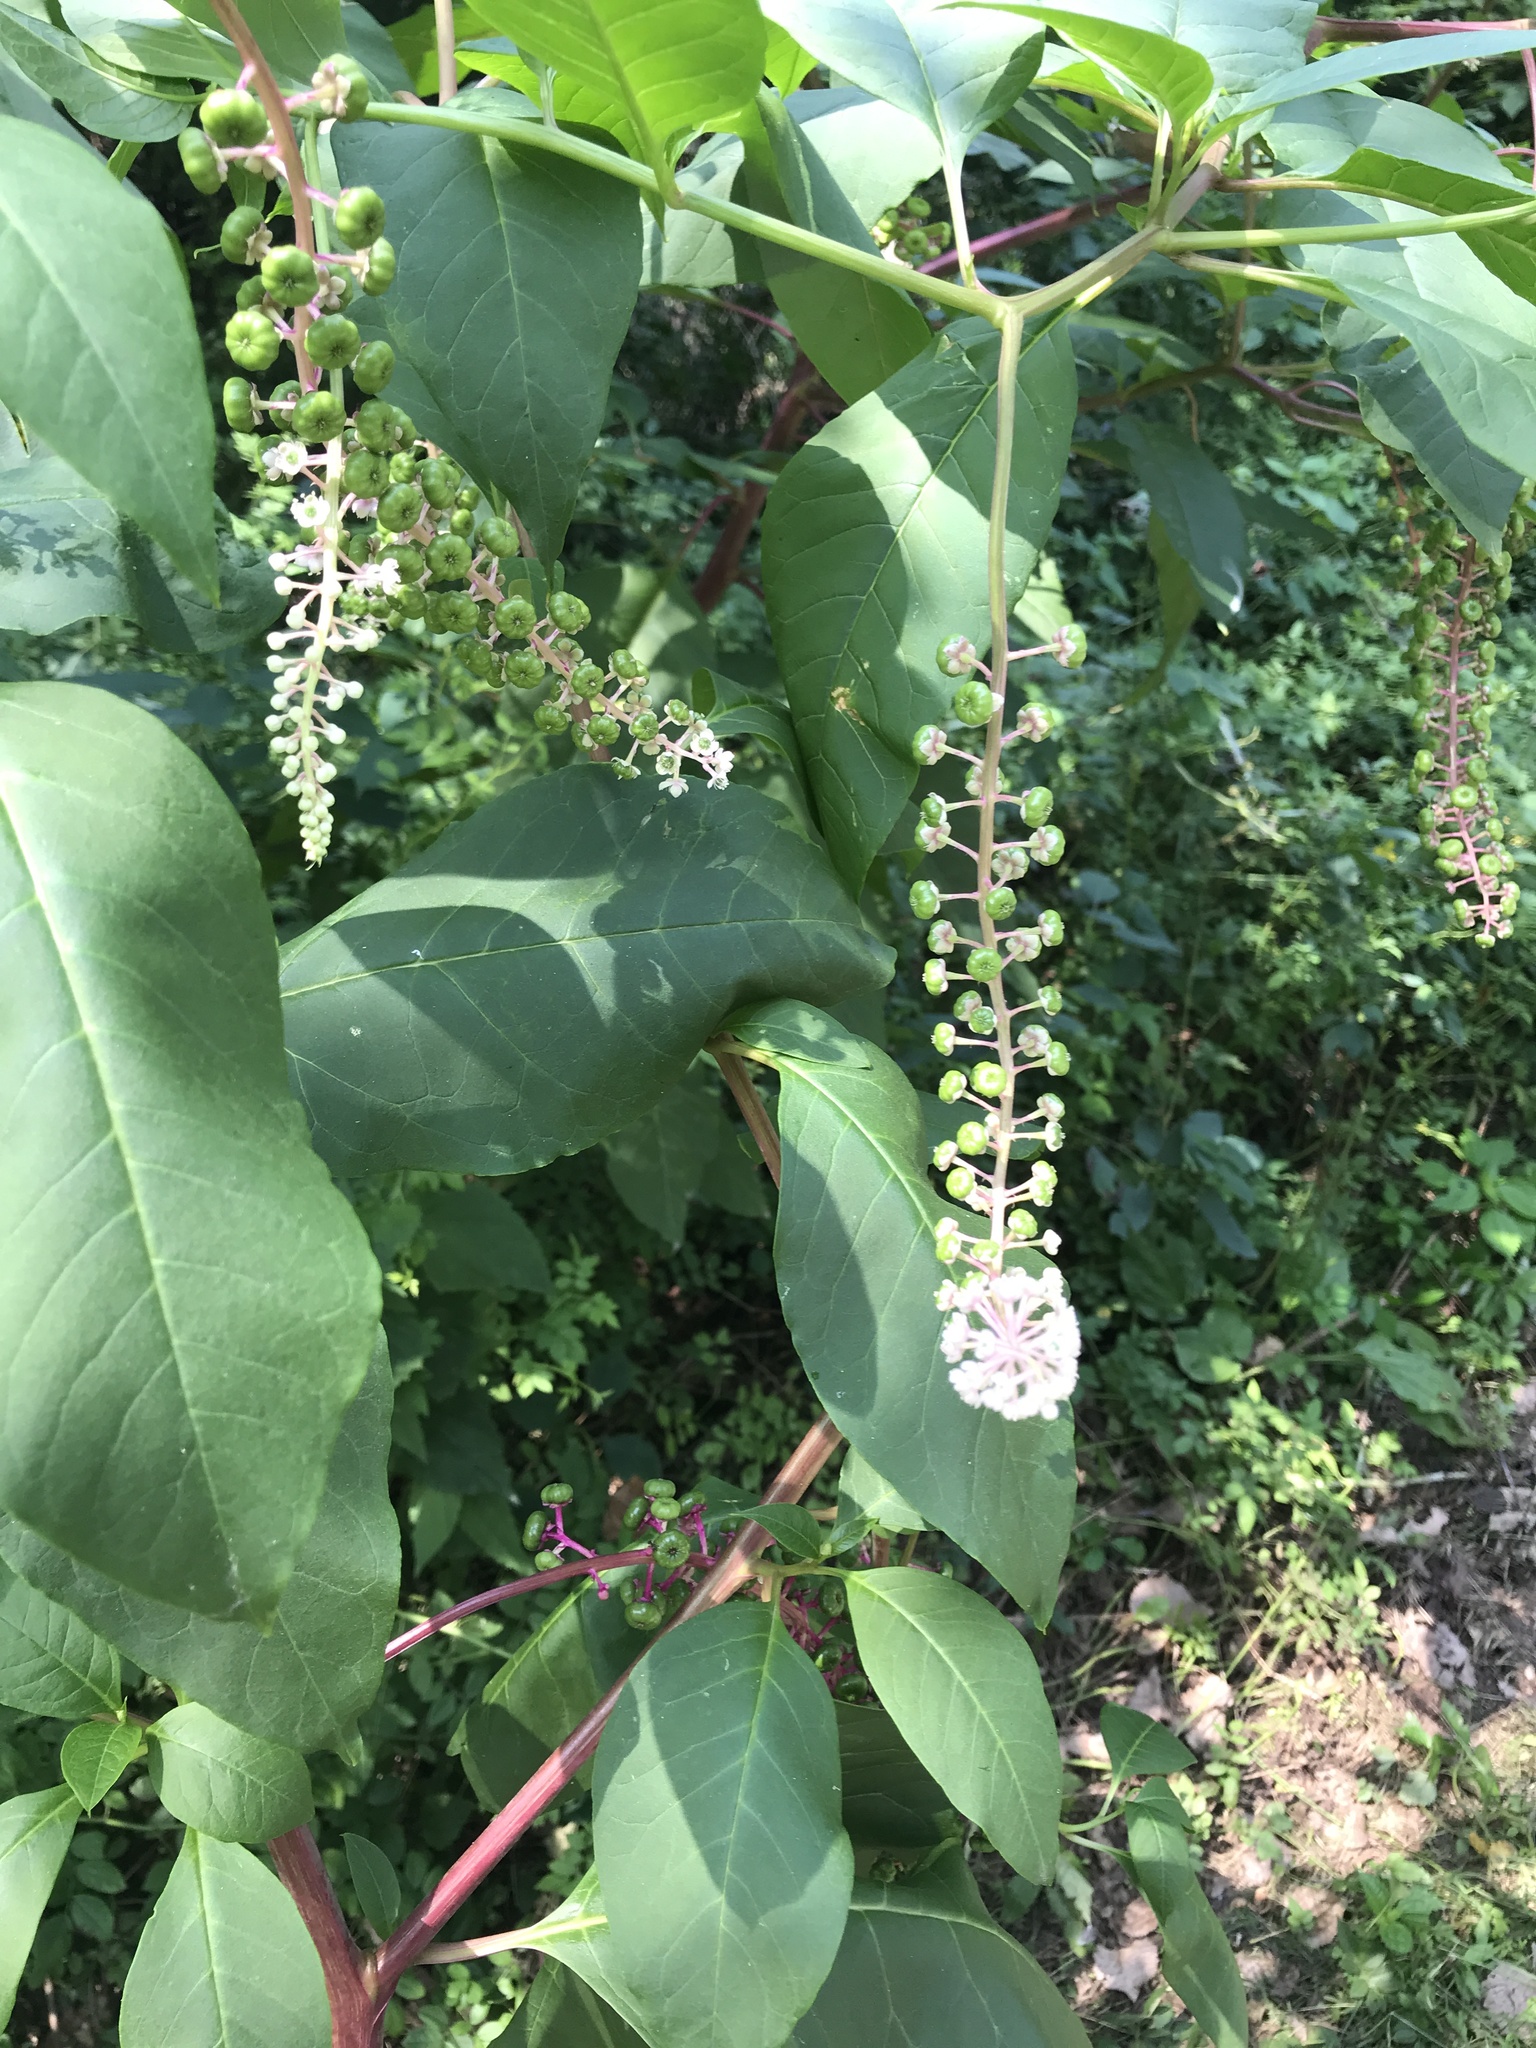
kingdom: Plantae
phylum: Tracheophyta
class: Magnoliopsida
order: Caryophyllales
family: Phytolaccaceae
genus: Phytolacca
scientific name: Phytolacca americana
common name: American pokeweed
